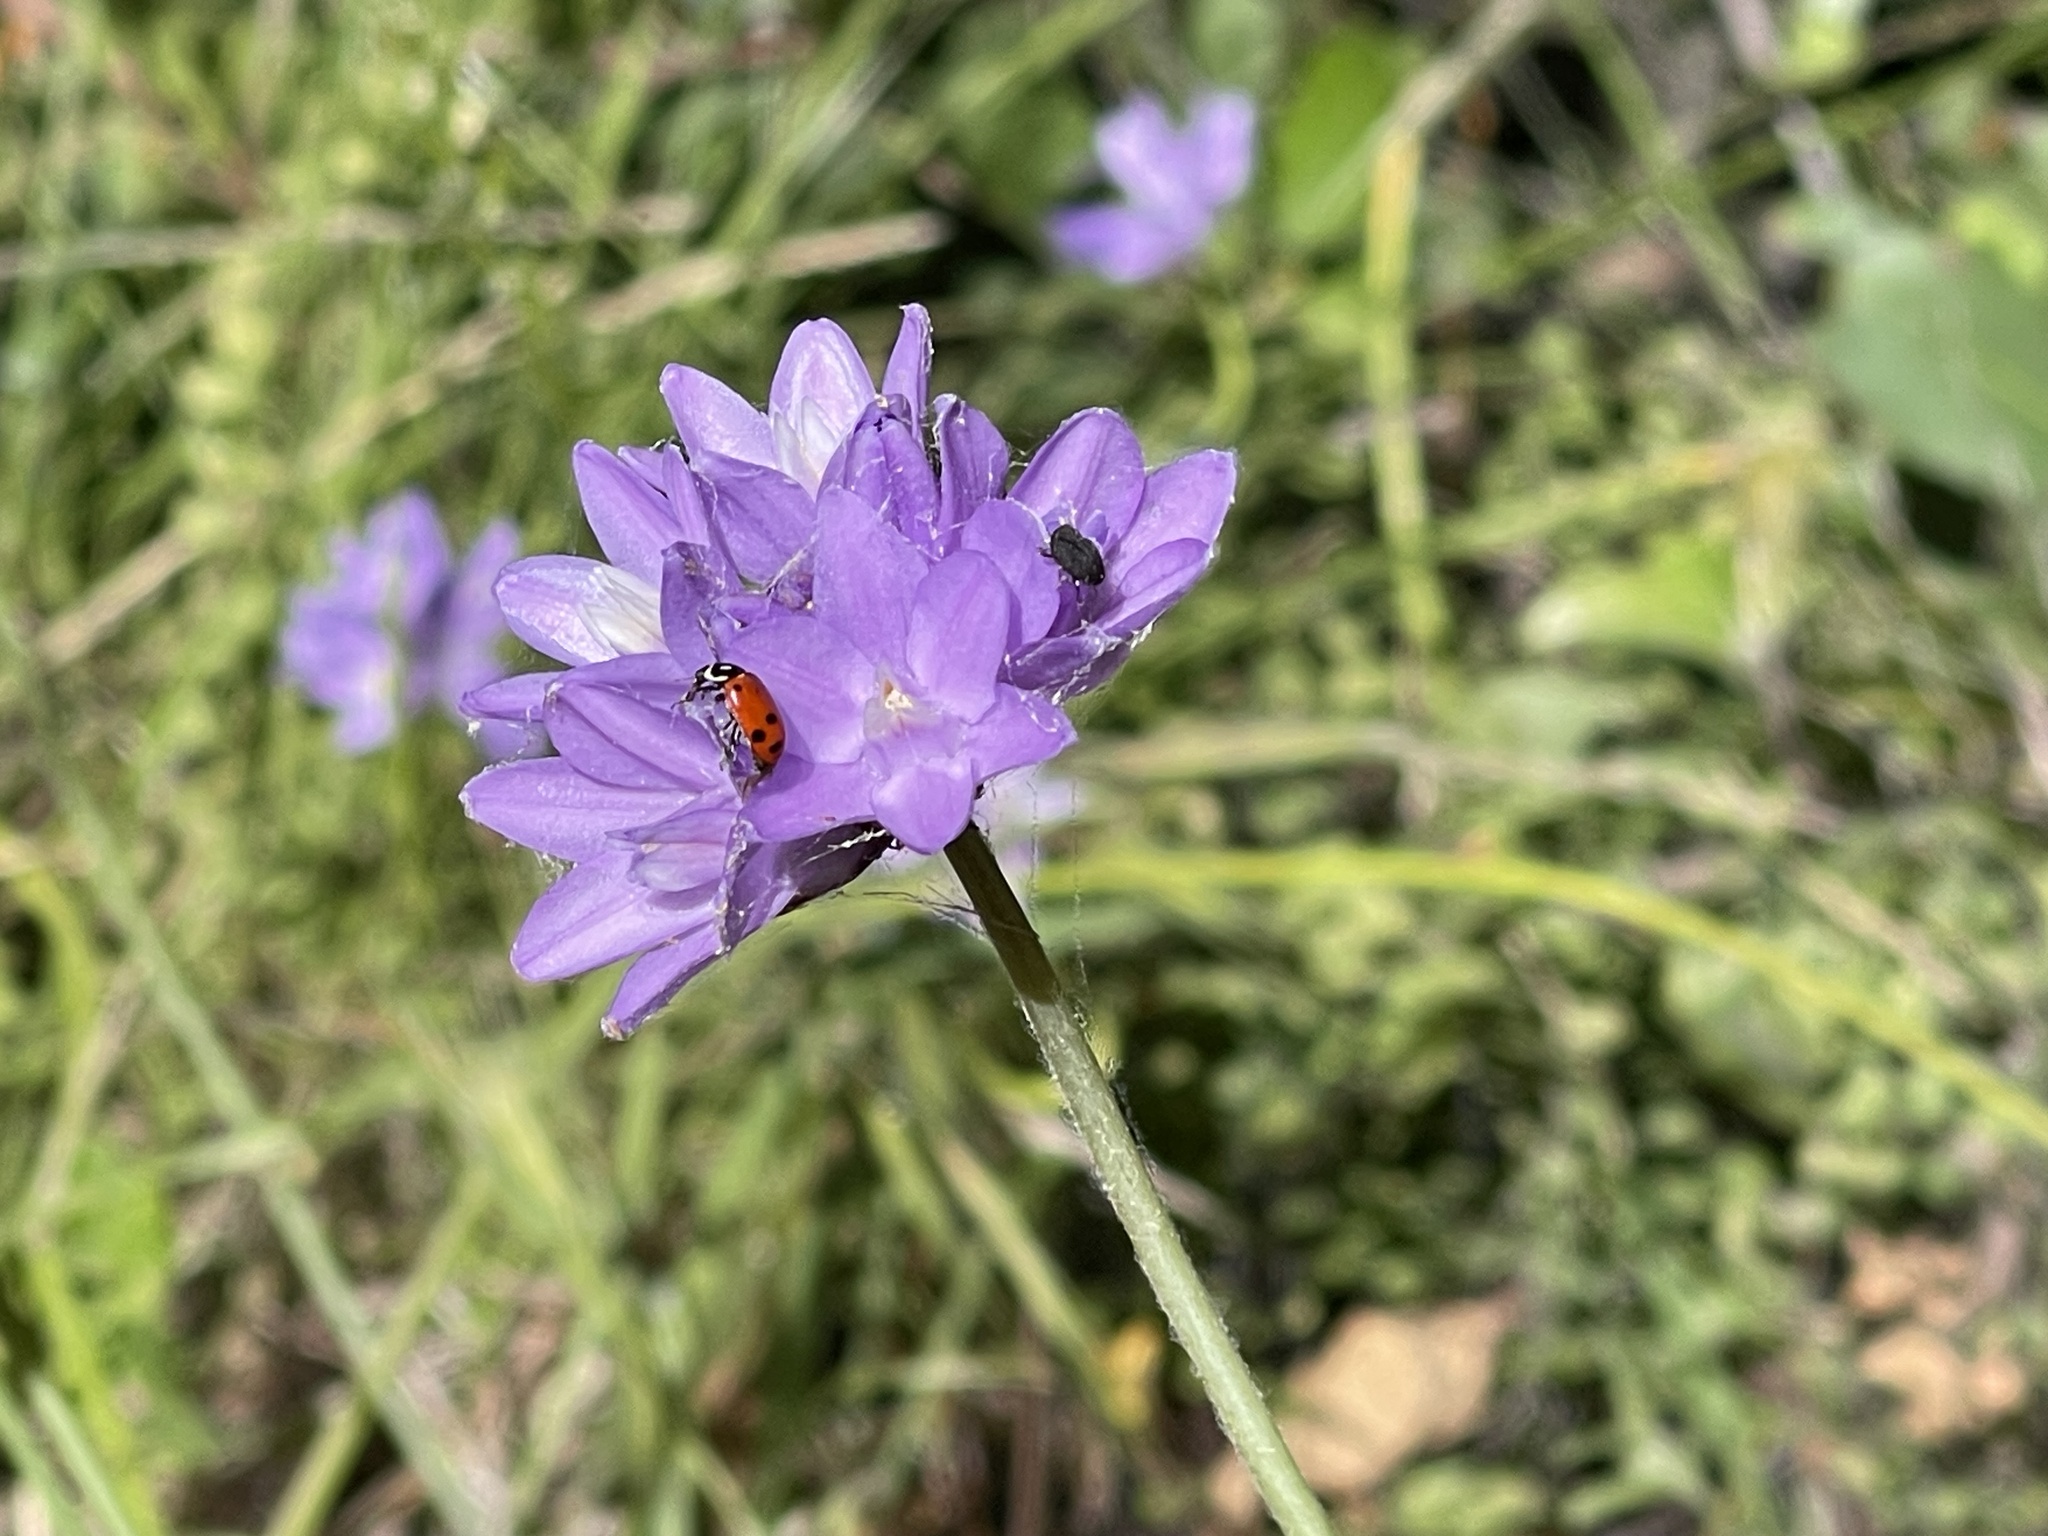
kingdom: Plantae
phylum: Tracheophyta
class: Liliopsida
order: Asparagales
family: Asparagaceae
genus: Dipterostemon
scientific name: Dipterostemon capitatus
